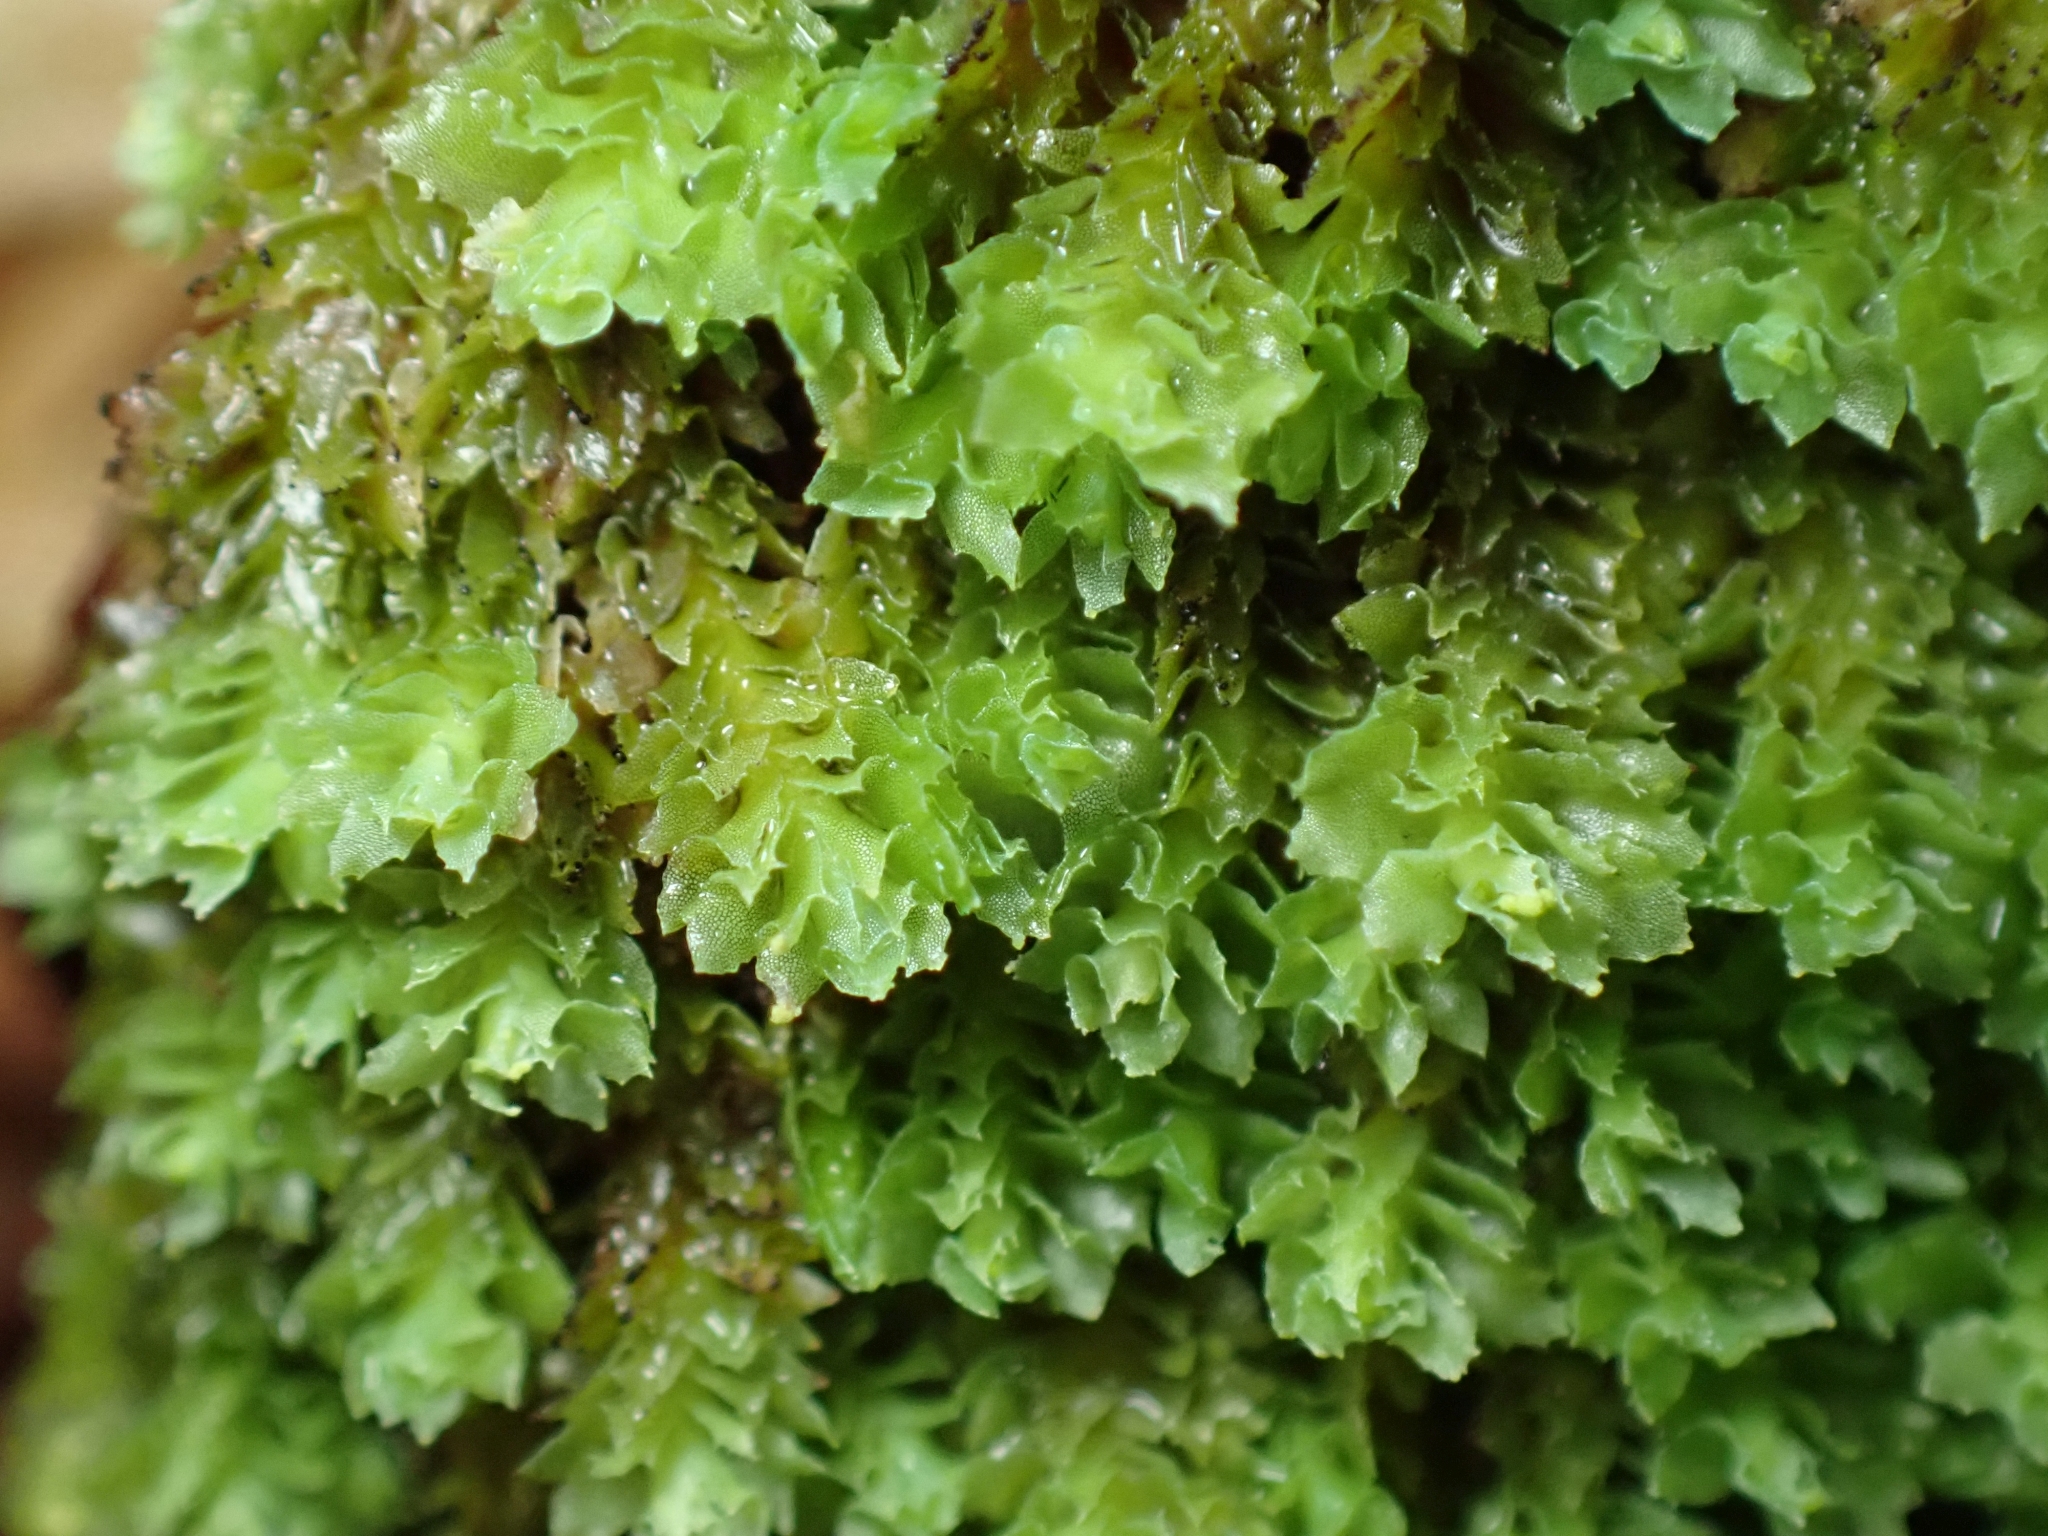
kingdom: Plantae
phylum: Marchantiophyta
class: Jungermanniopsida
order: Jungermanniales
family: Scapaniaceae
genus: Schistochilopsis
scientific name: Schistochilopsis incisa
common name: Jagged notchwort
